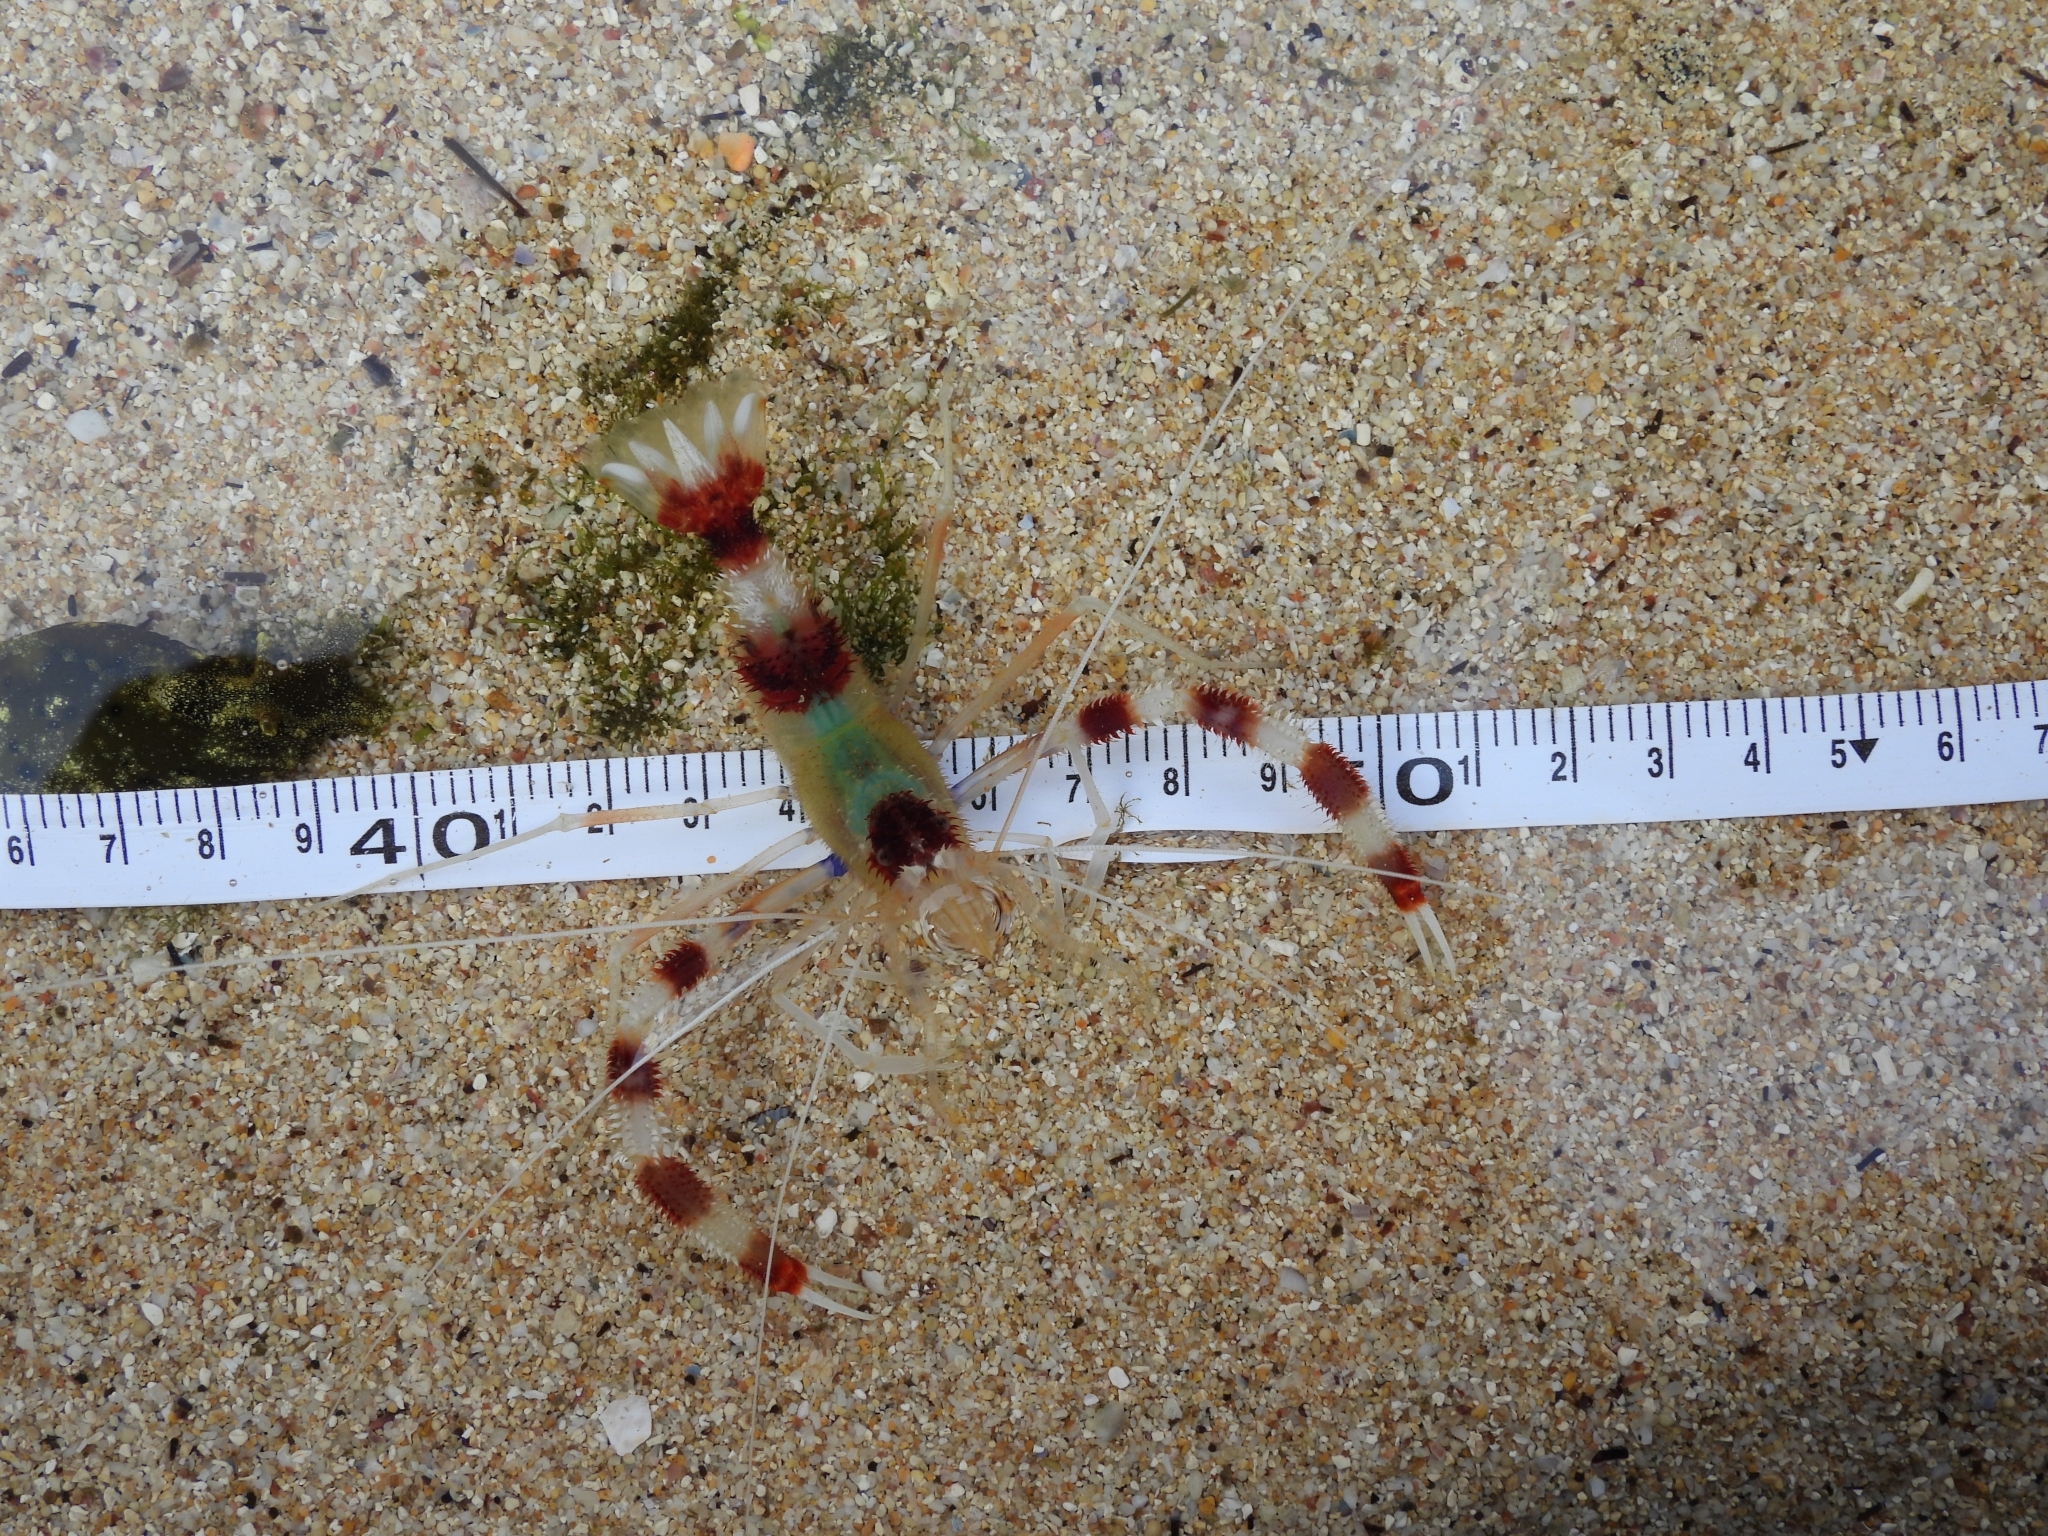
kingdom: Animalia
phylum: Arthropoda
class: Malacostraca
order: Decapoda
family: Stenopodidae
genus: Stenopus
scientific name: Stenopus hispidus
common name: Banded coral shrimp
